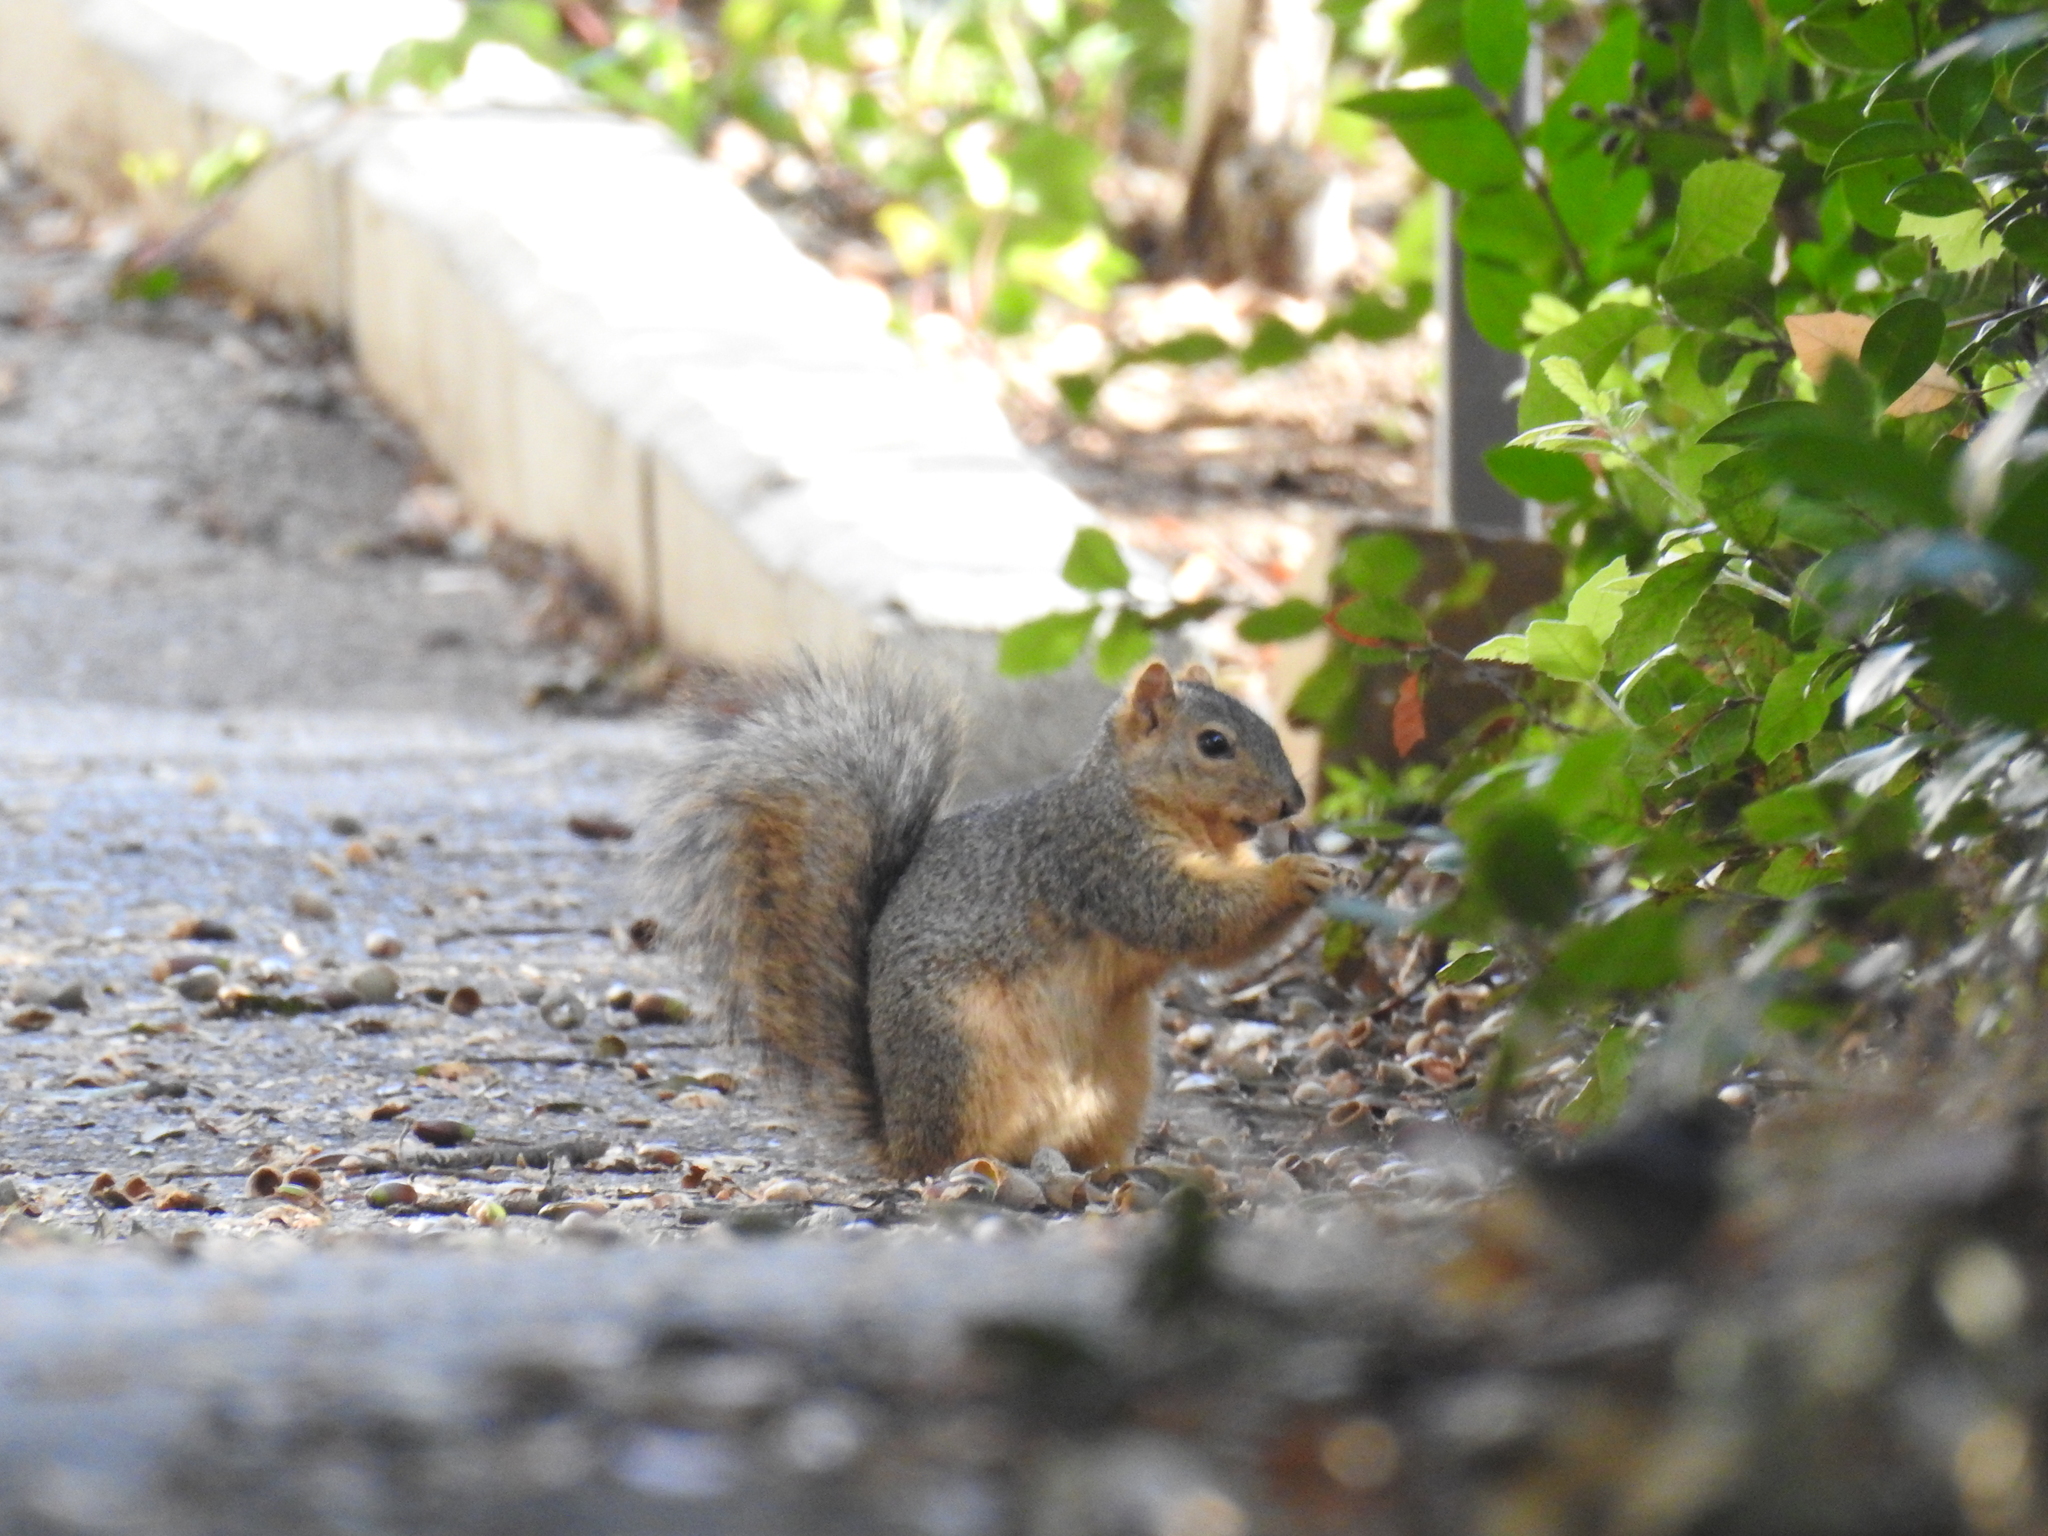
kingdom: Animalia
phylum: Chordata
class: Mammalia
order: Rodentia
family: Sciuridae
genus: Sciurus
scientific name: Sciurus niger
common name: Fox squirrel
